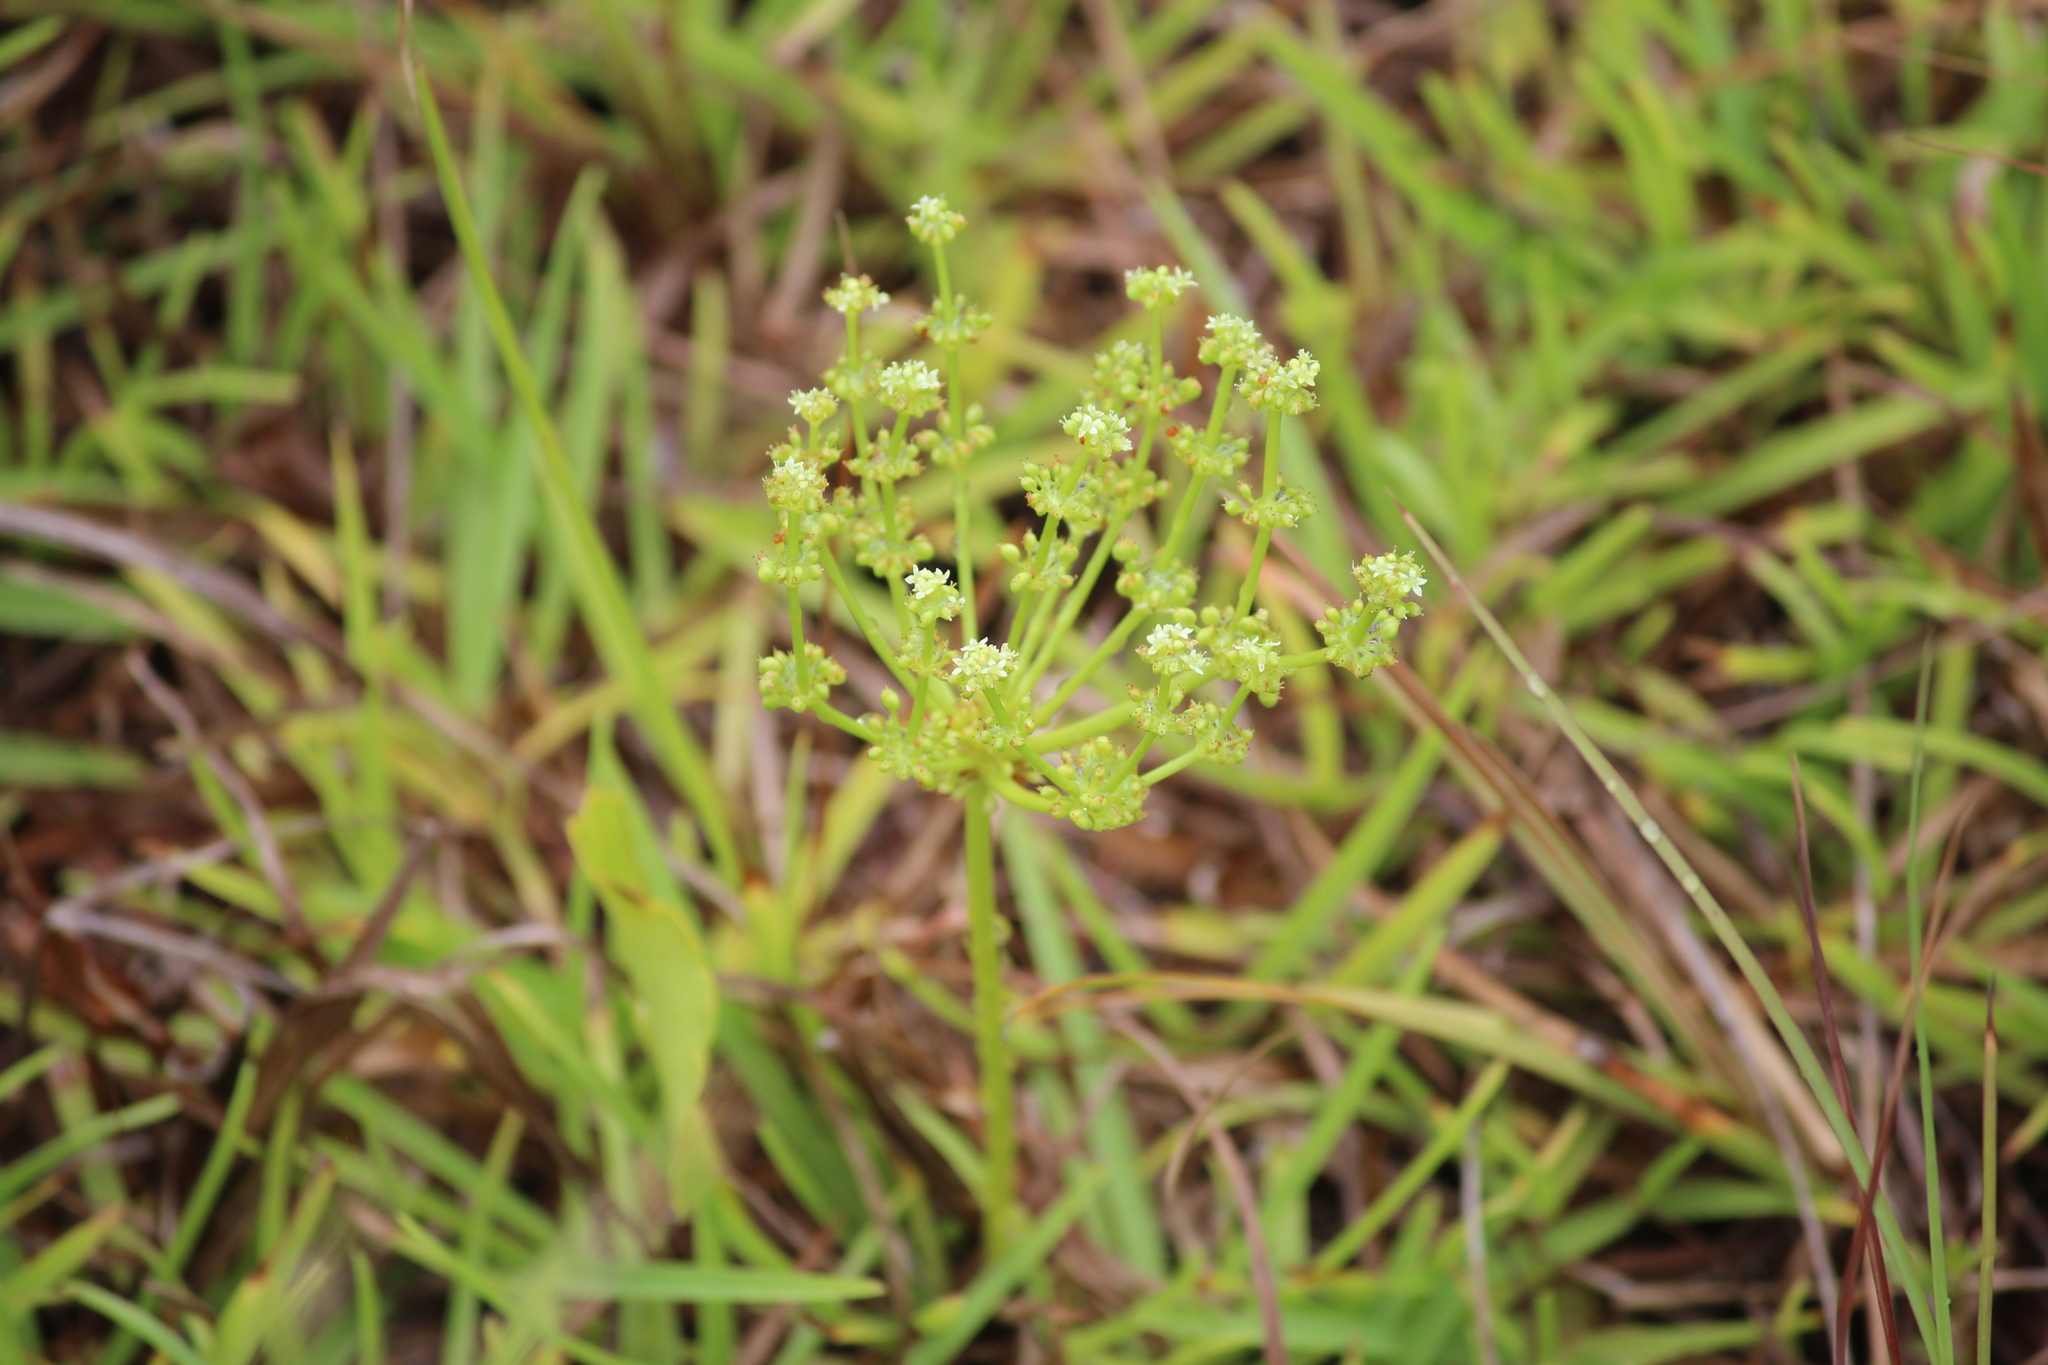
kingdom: Plantae
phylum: Tracheophyta
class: Magnoliopsida
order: Apiales
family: Araliaceae
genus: Hydrocotyle
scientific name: Hydrocotyle bonariensis
